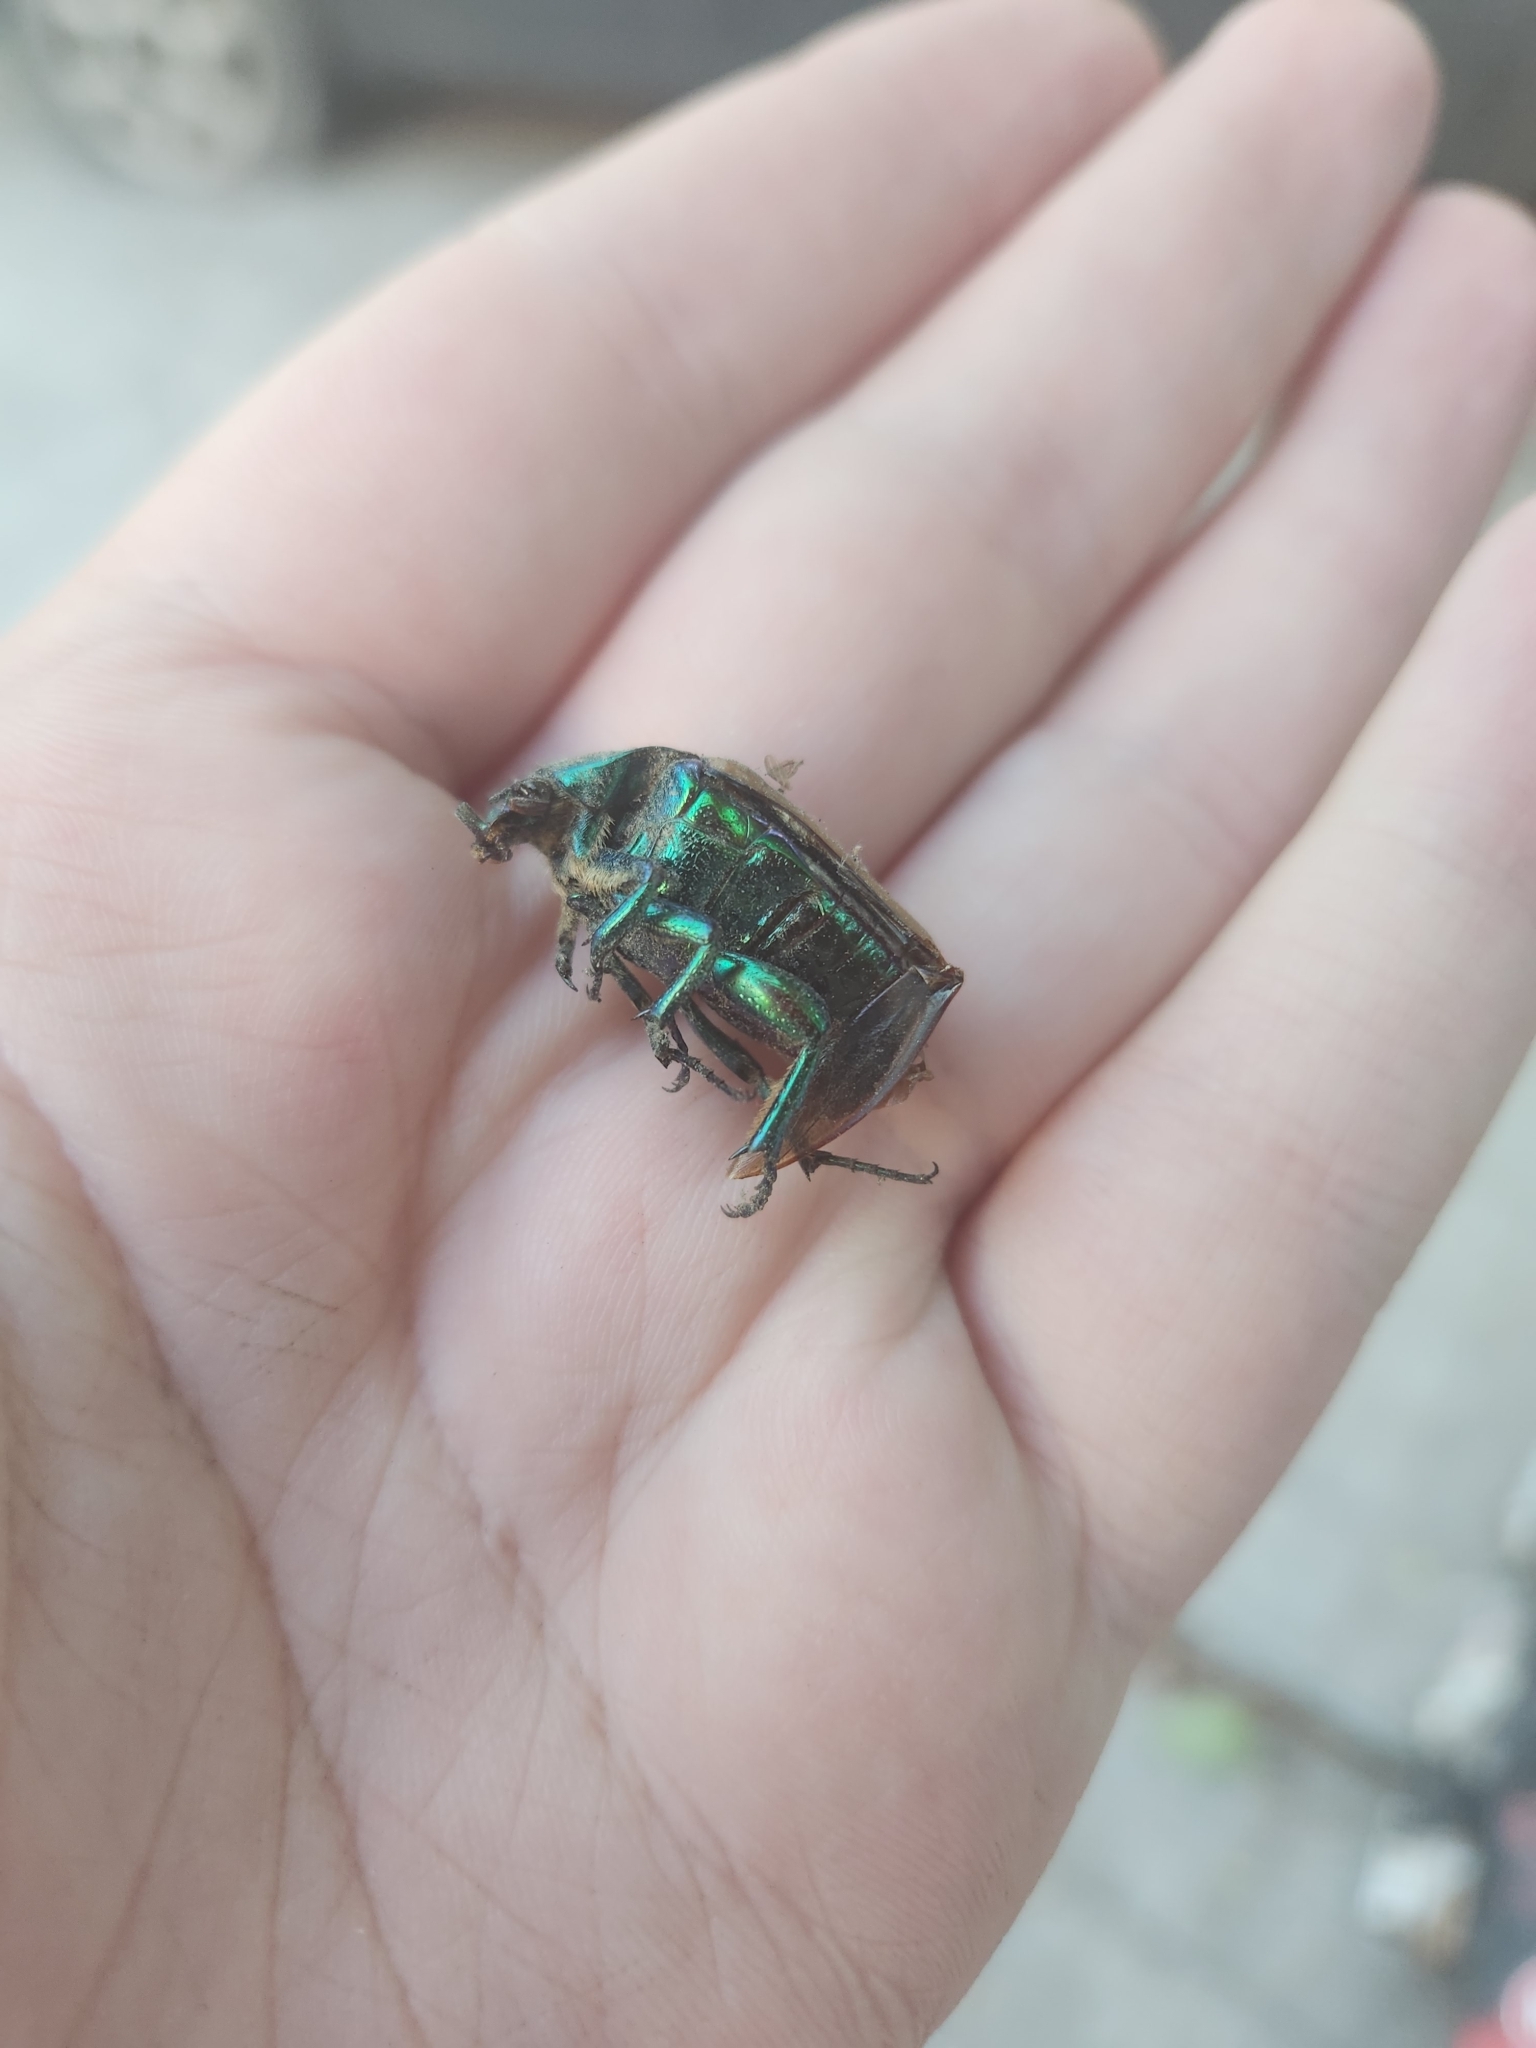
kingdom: Animalia
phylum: Arthropoda
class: Insecta
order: Coleoptera
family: Scarabaeidae
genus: Cotinis
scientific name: Cotinis mutabilis
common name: Figeater beetle
